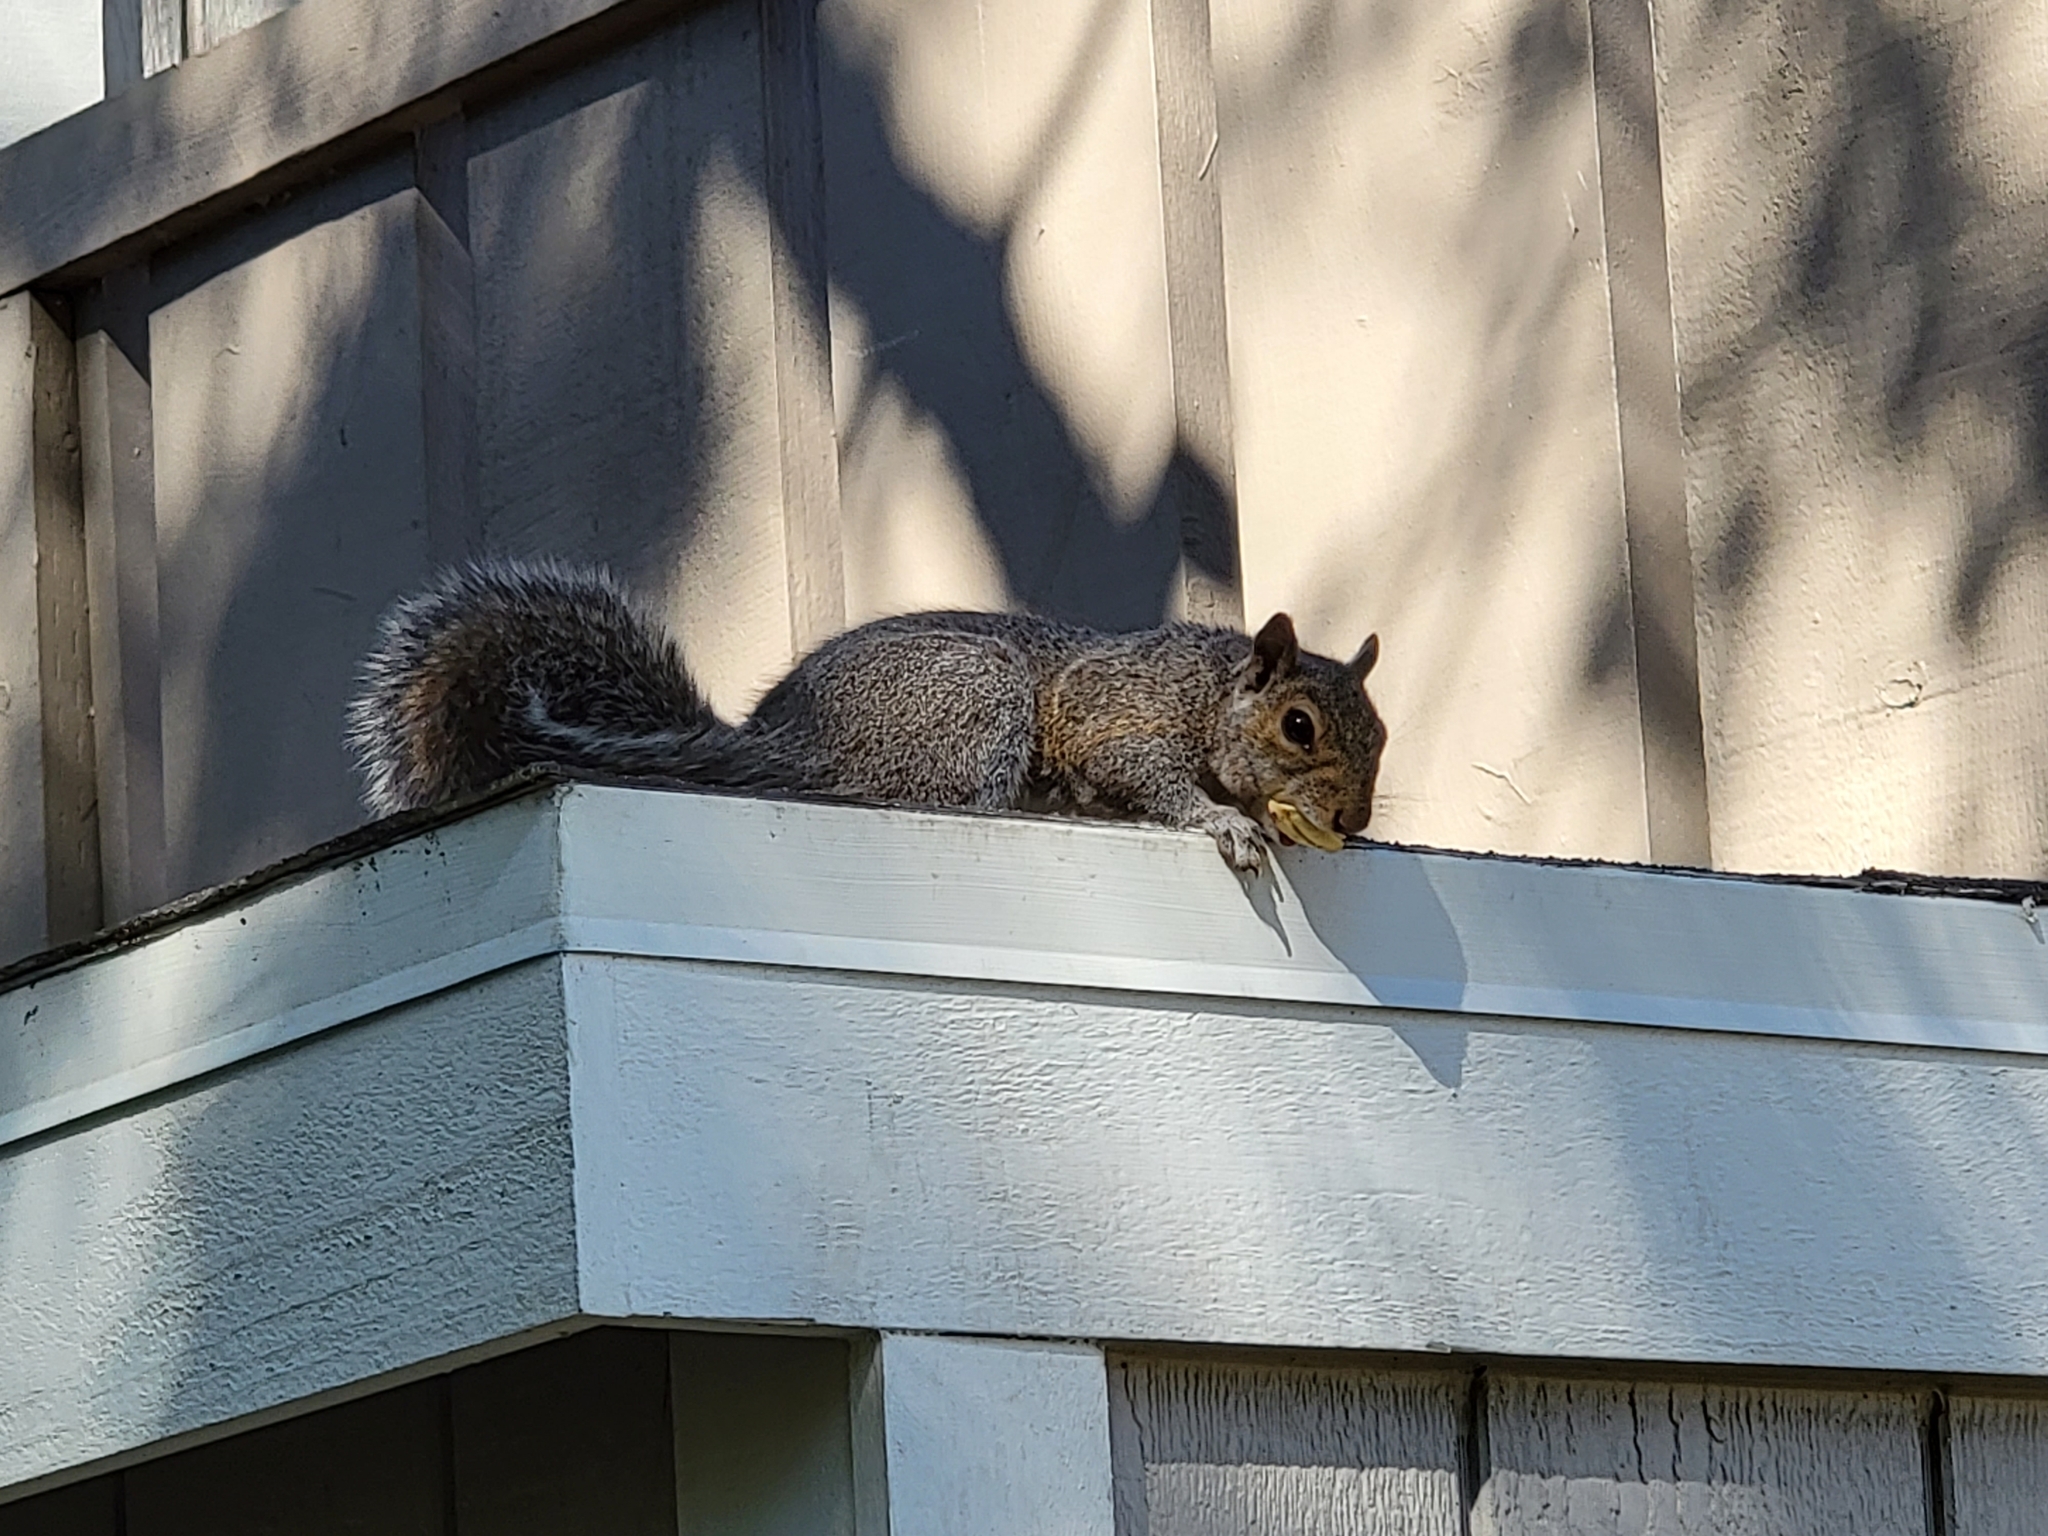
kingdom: Animalia
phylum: Chordata
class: Mammalia
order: Rodentia
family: Sciuridae
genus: Sciurus
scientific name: Sciurus carolinensis
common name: Eastern gray squirrel
